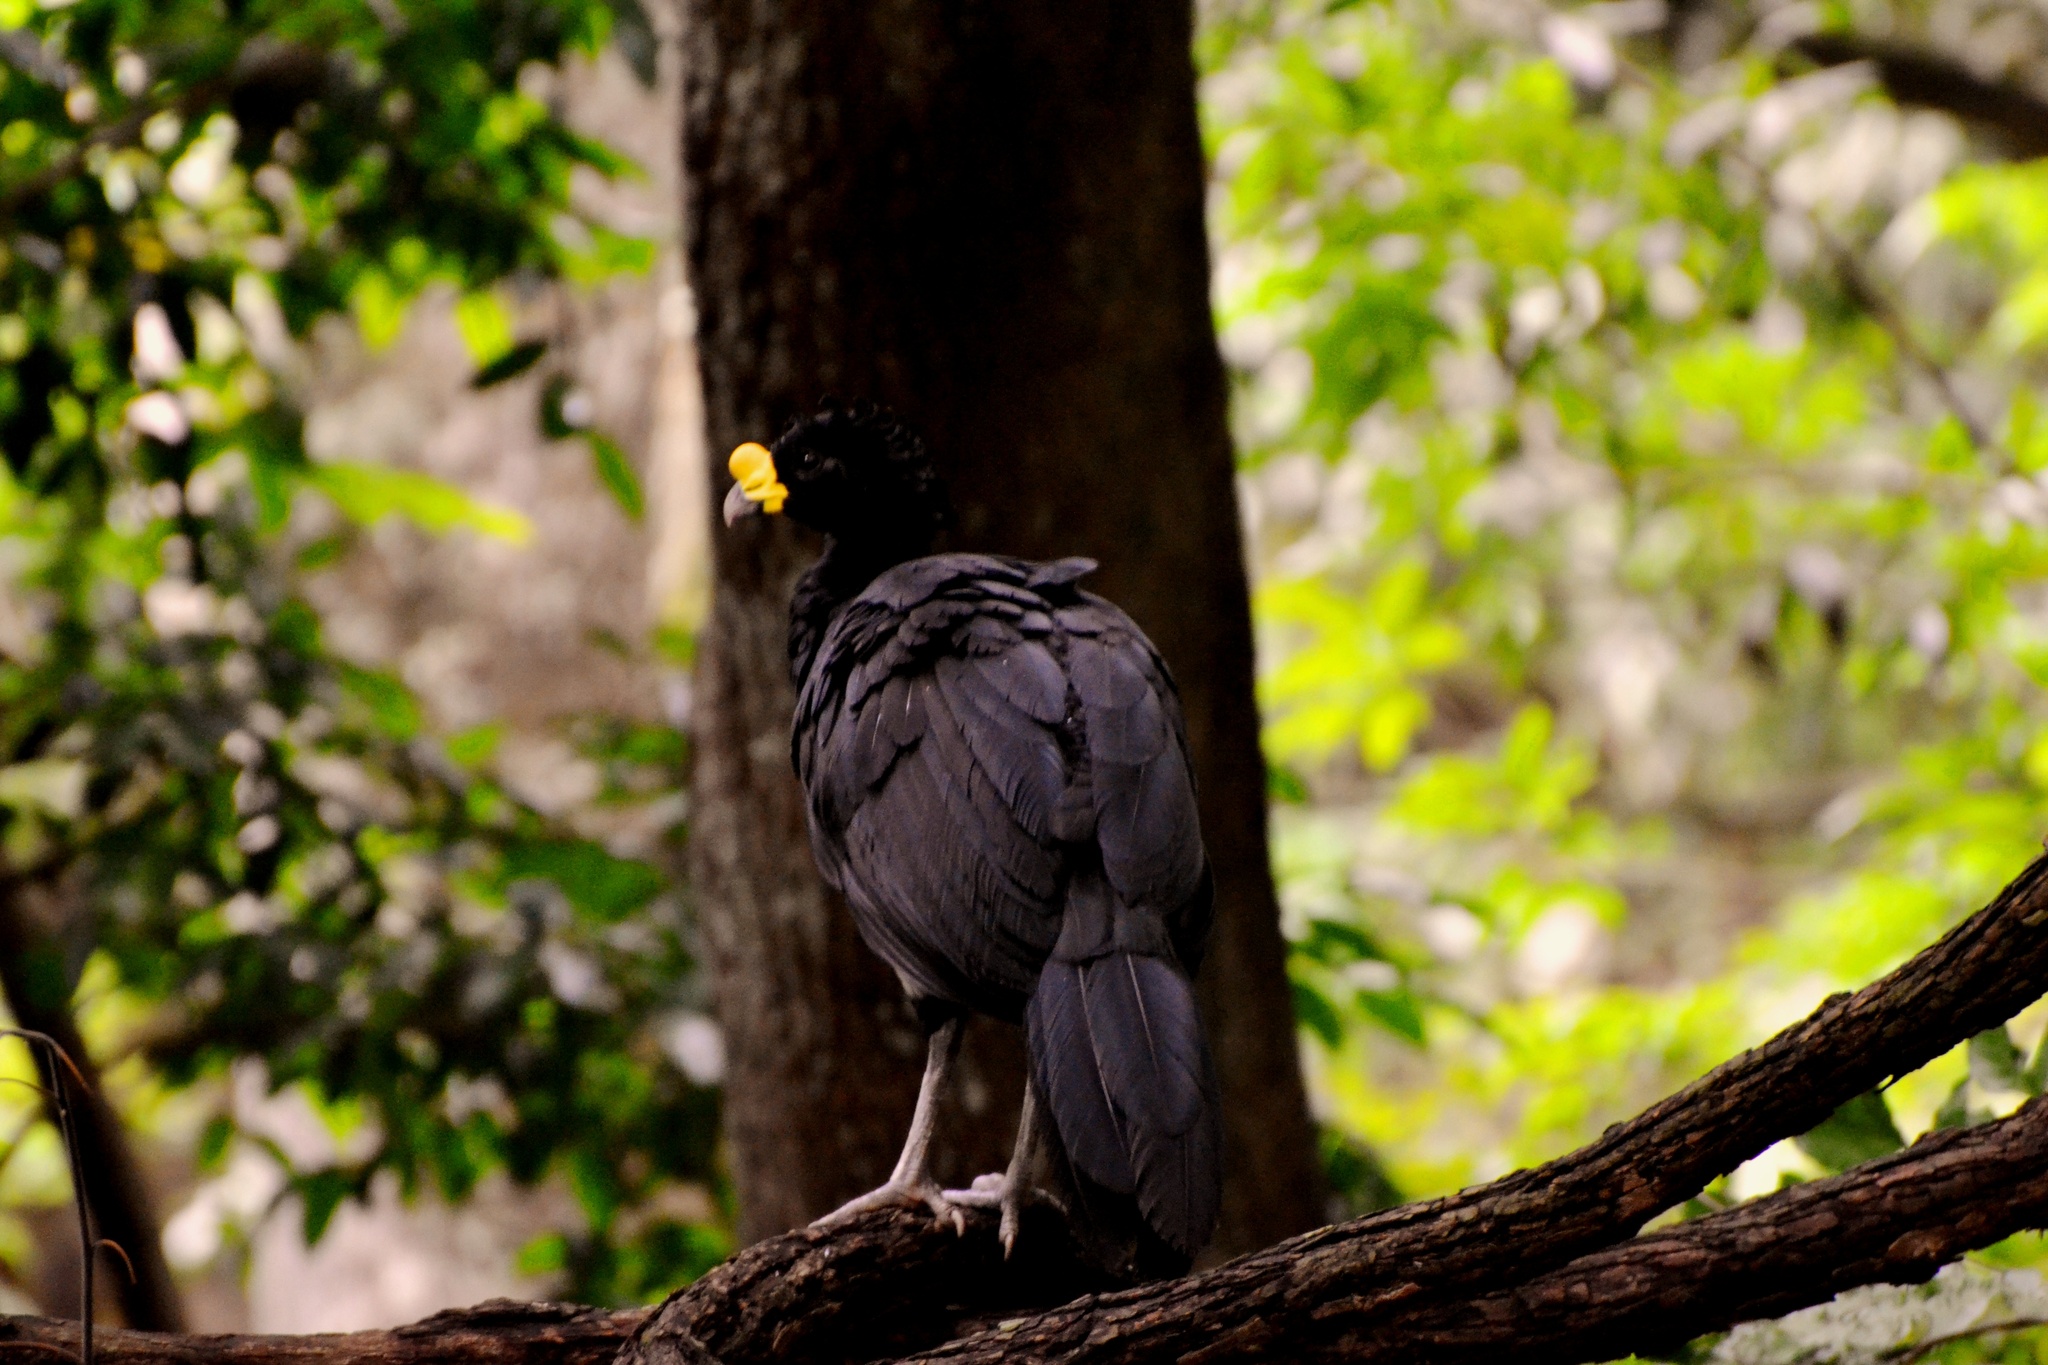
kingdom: Animalia
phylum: Chordata
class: Aves
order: Galliformes
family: Cracidae
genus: Crax
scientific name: Crax rubra
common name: Great curassow
